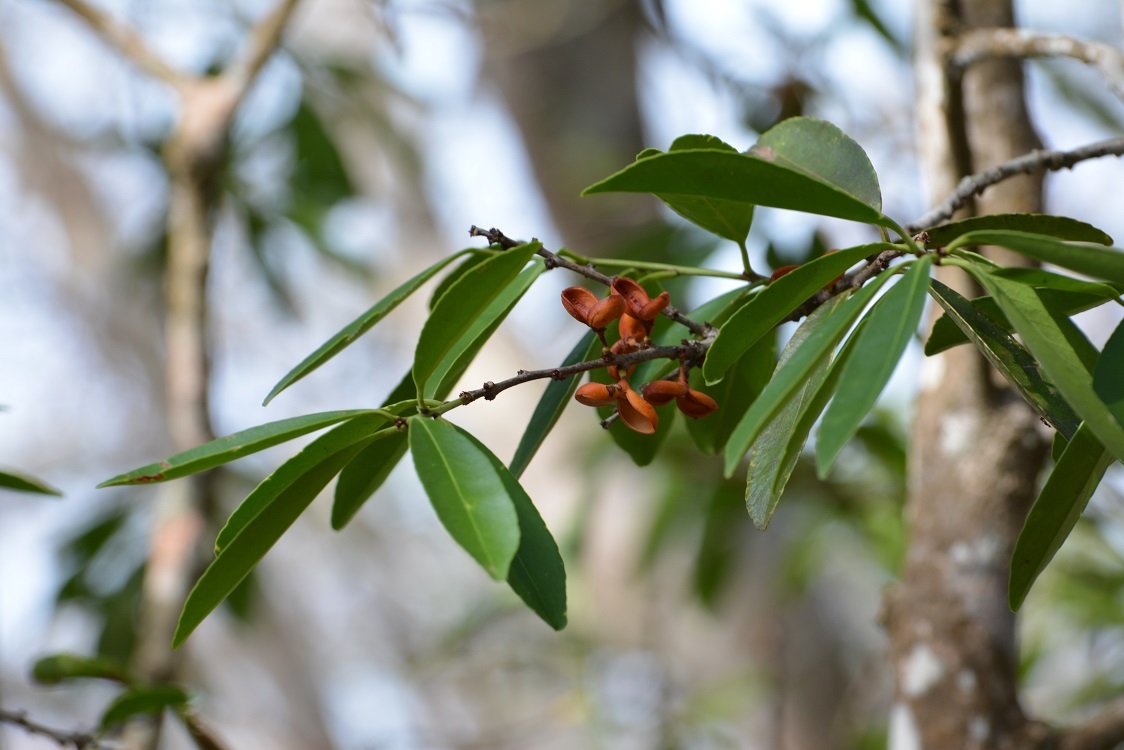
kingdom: Plantae
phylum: Tracheophyta
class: Magnoliopsida
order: Celastrales
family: Celastraceae
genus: Monteverdia
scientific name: Monteverdia chiapensis
